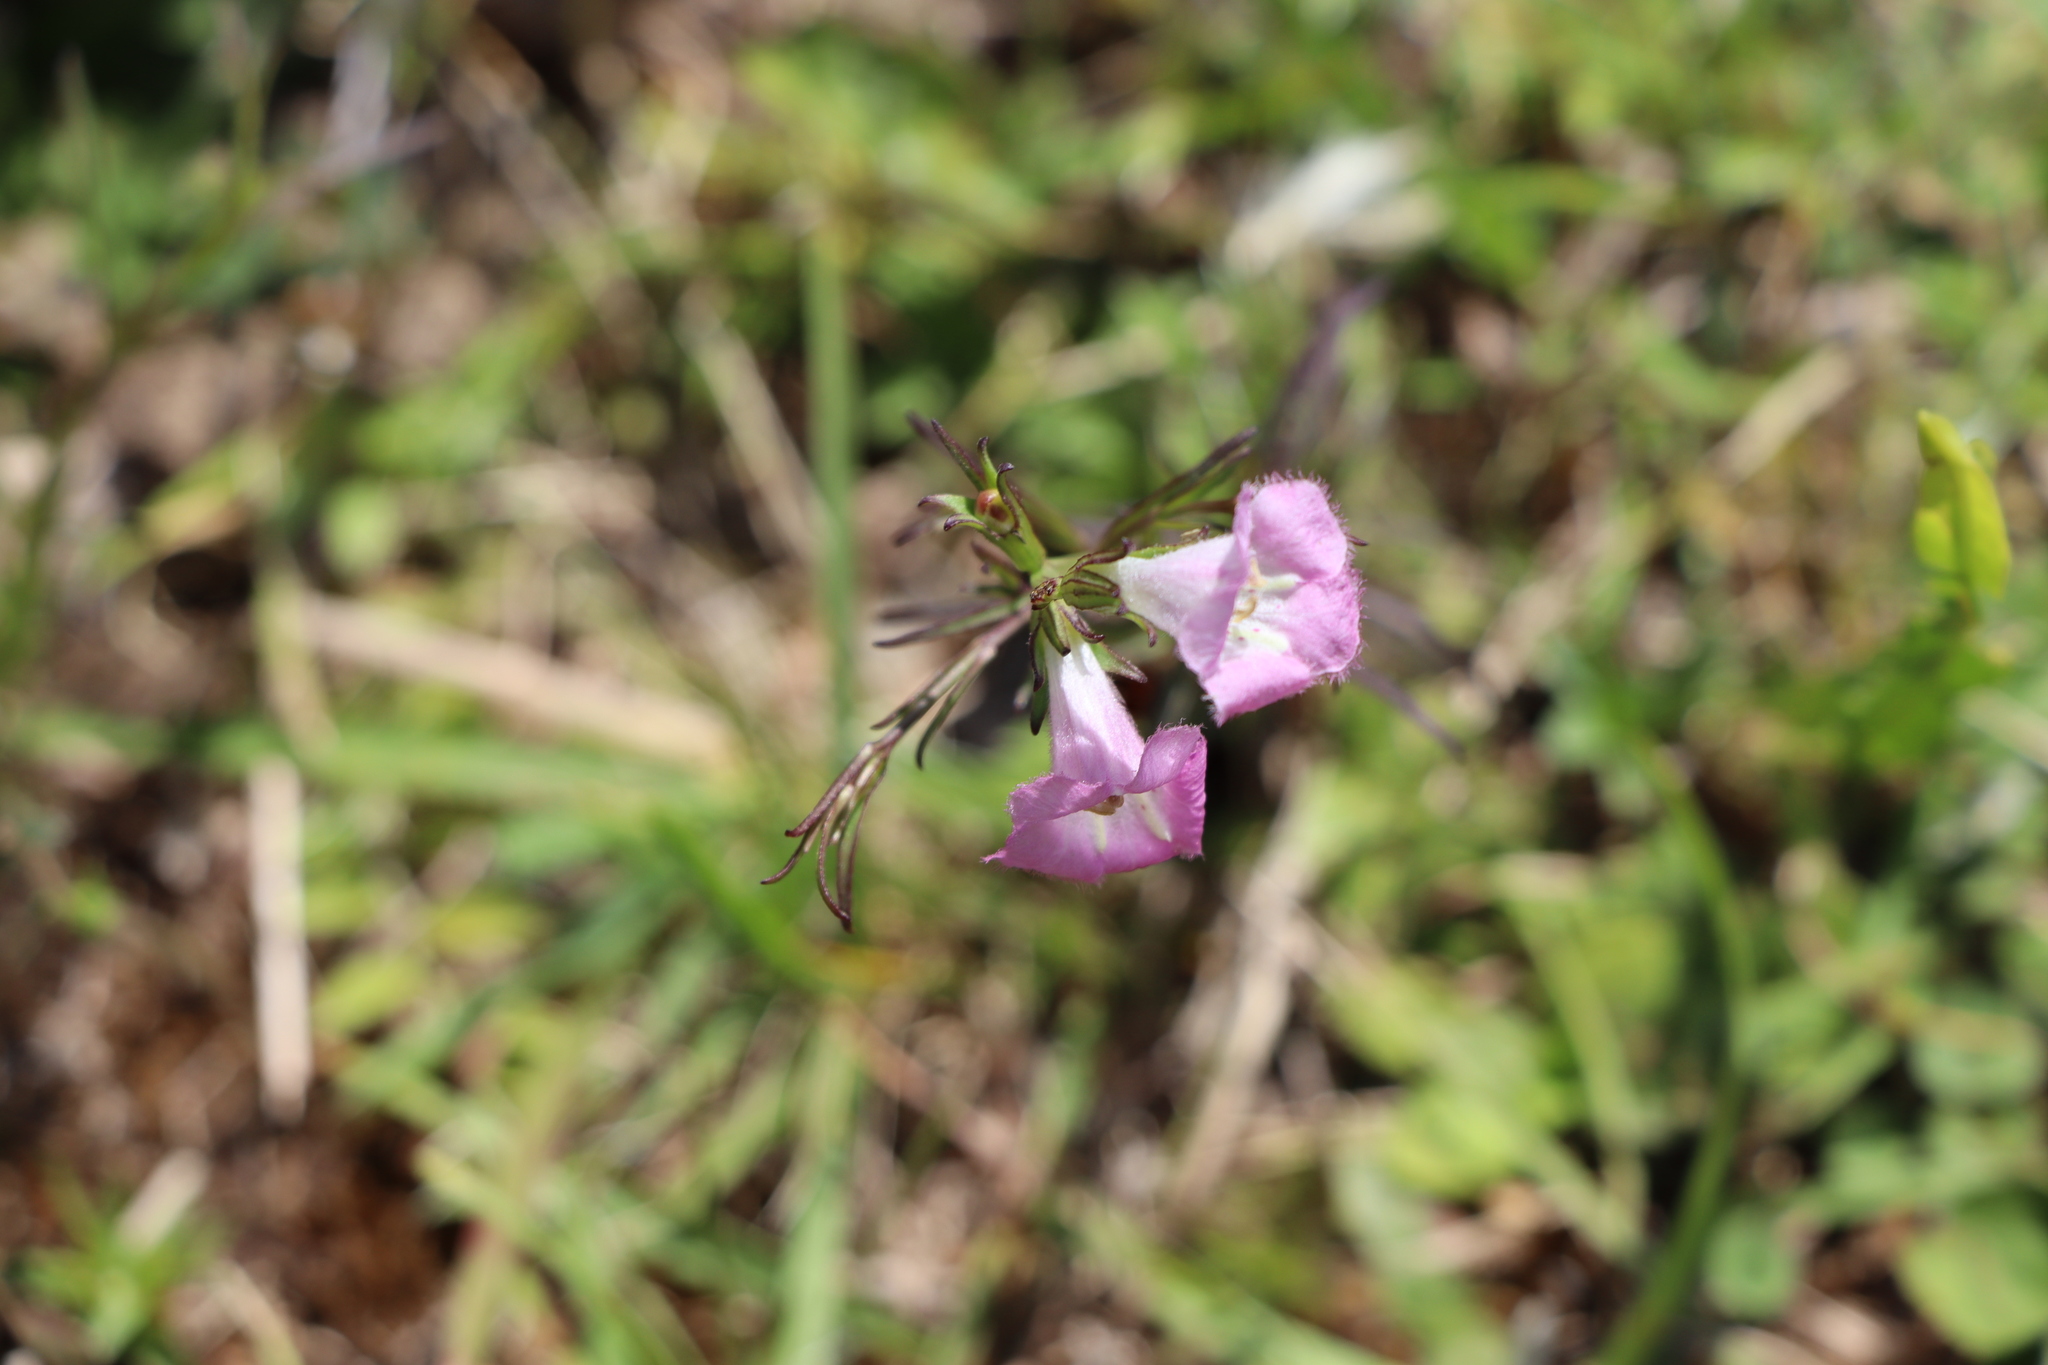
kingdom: Plantae
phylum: Tracheophyta
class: Magnoliopsida
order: Lamiales
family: Orobanchaceae
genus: Agalinis
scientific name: Agalinis communis
